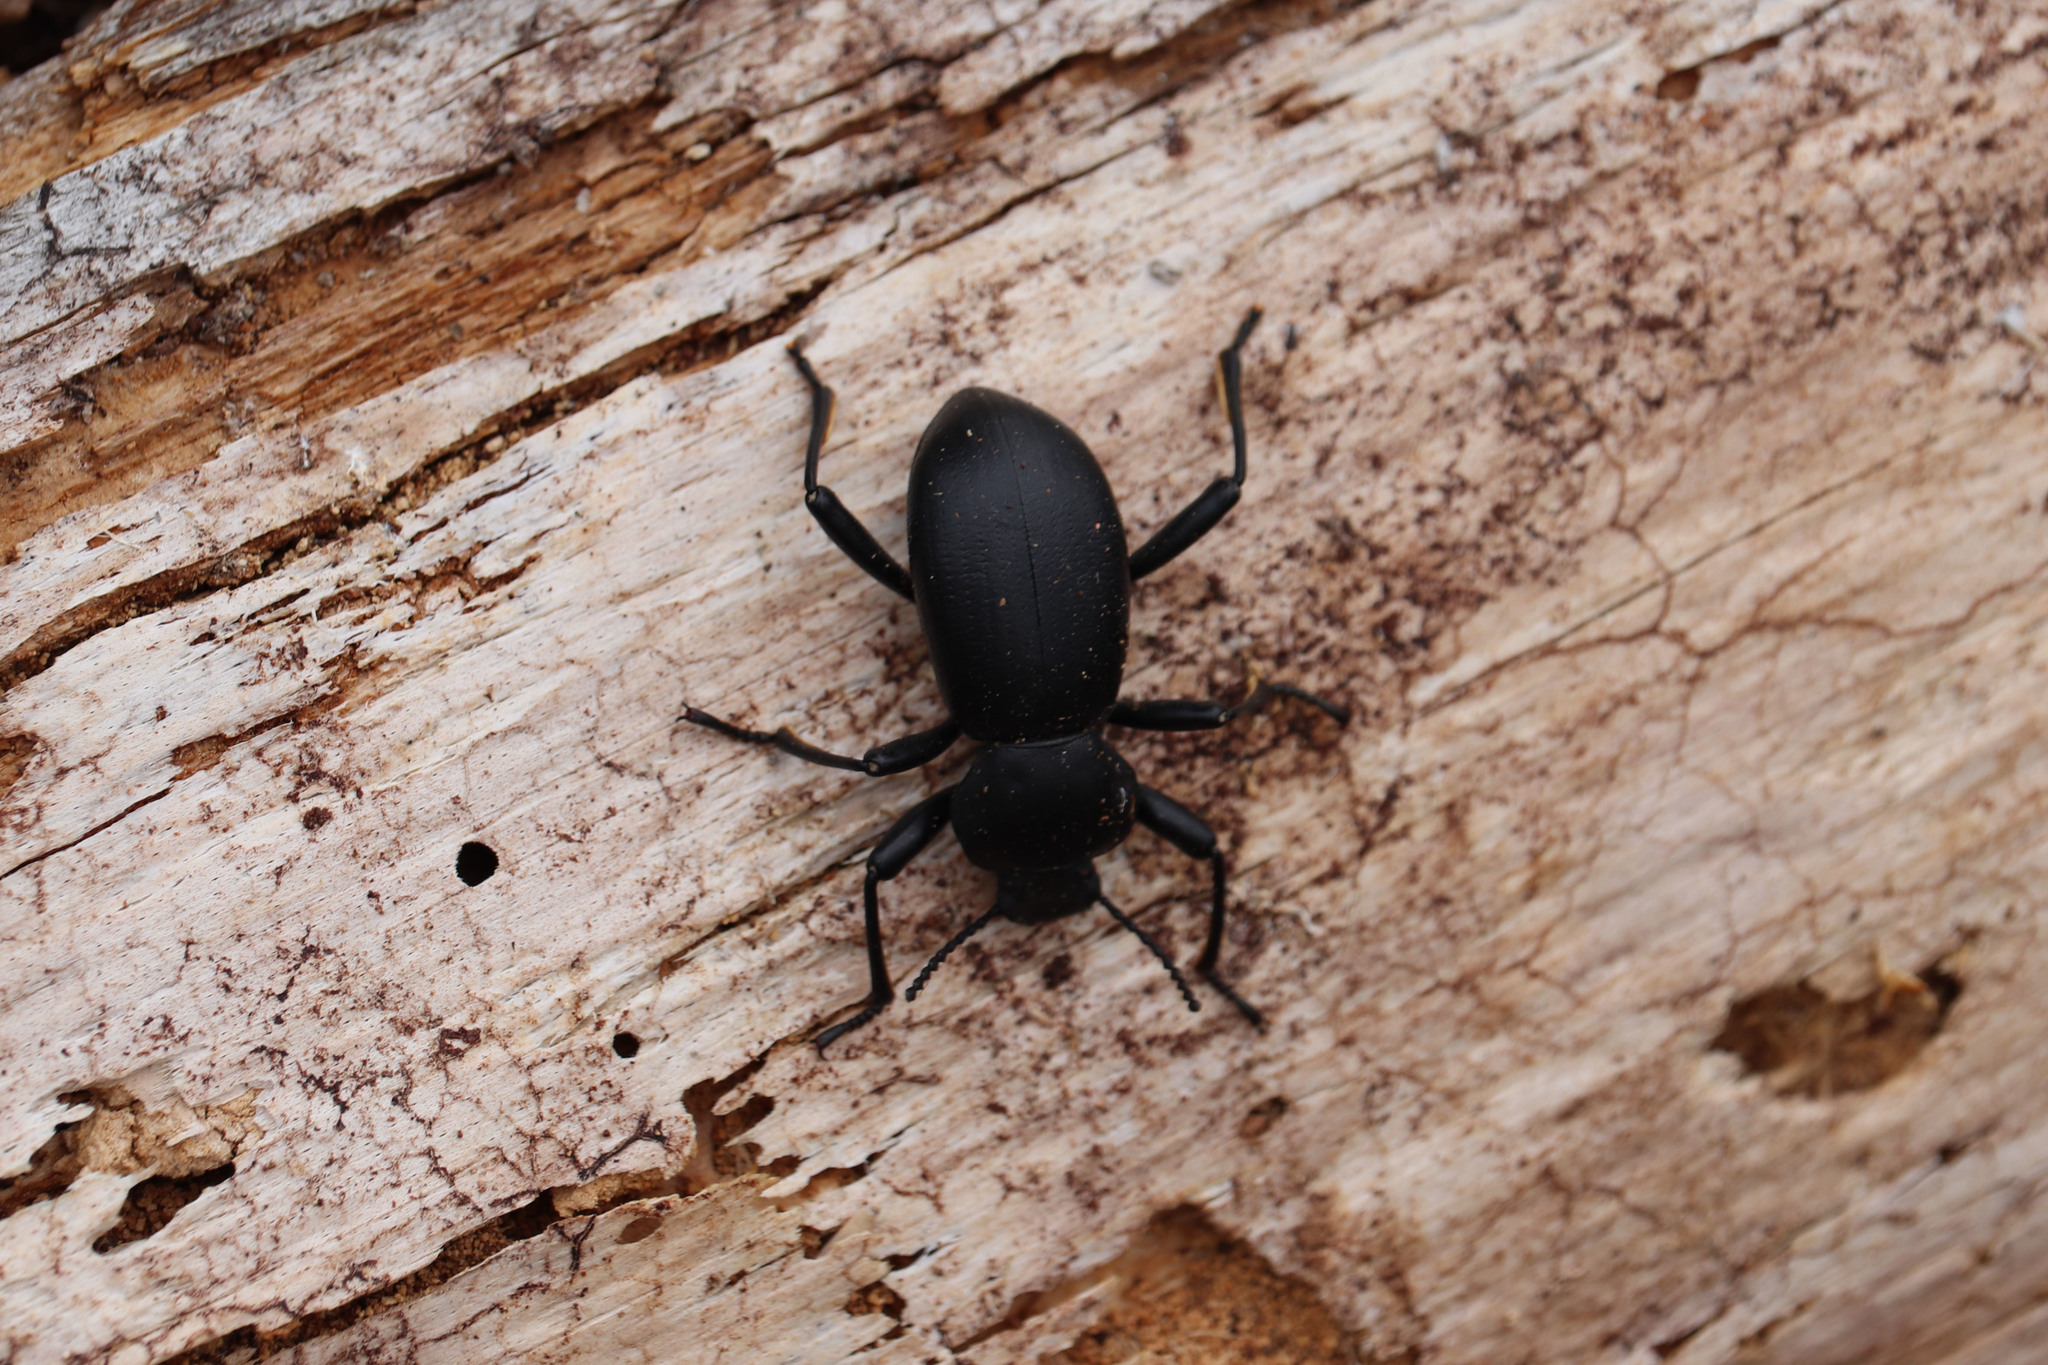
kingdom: Animalia
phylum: Arthropoda
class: Insecta
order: Coleoptera
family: Tenebrionidae
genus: Coelocnemis
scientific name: Coelocnemis dilaticollis
